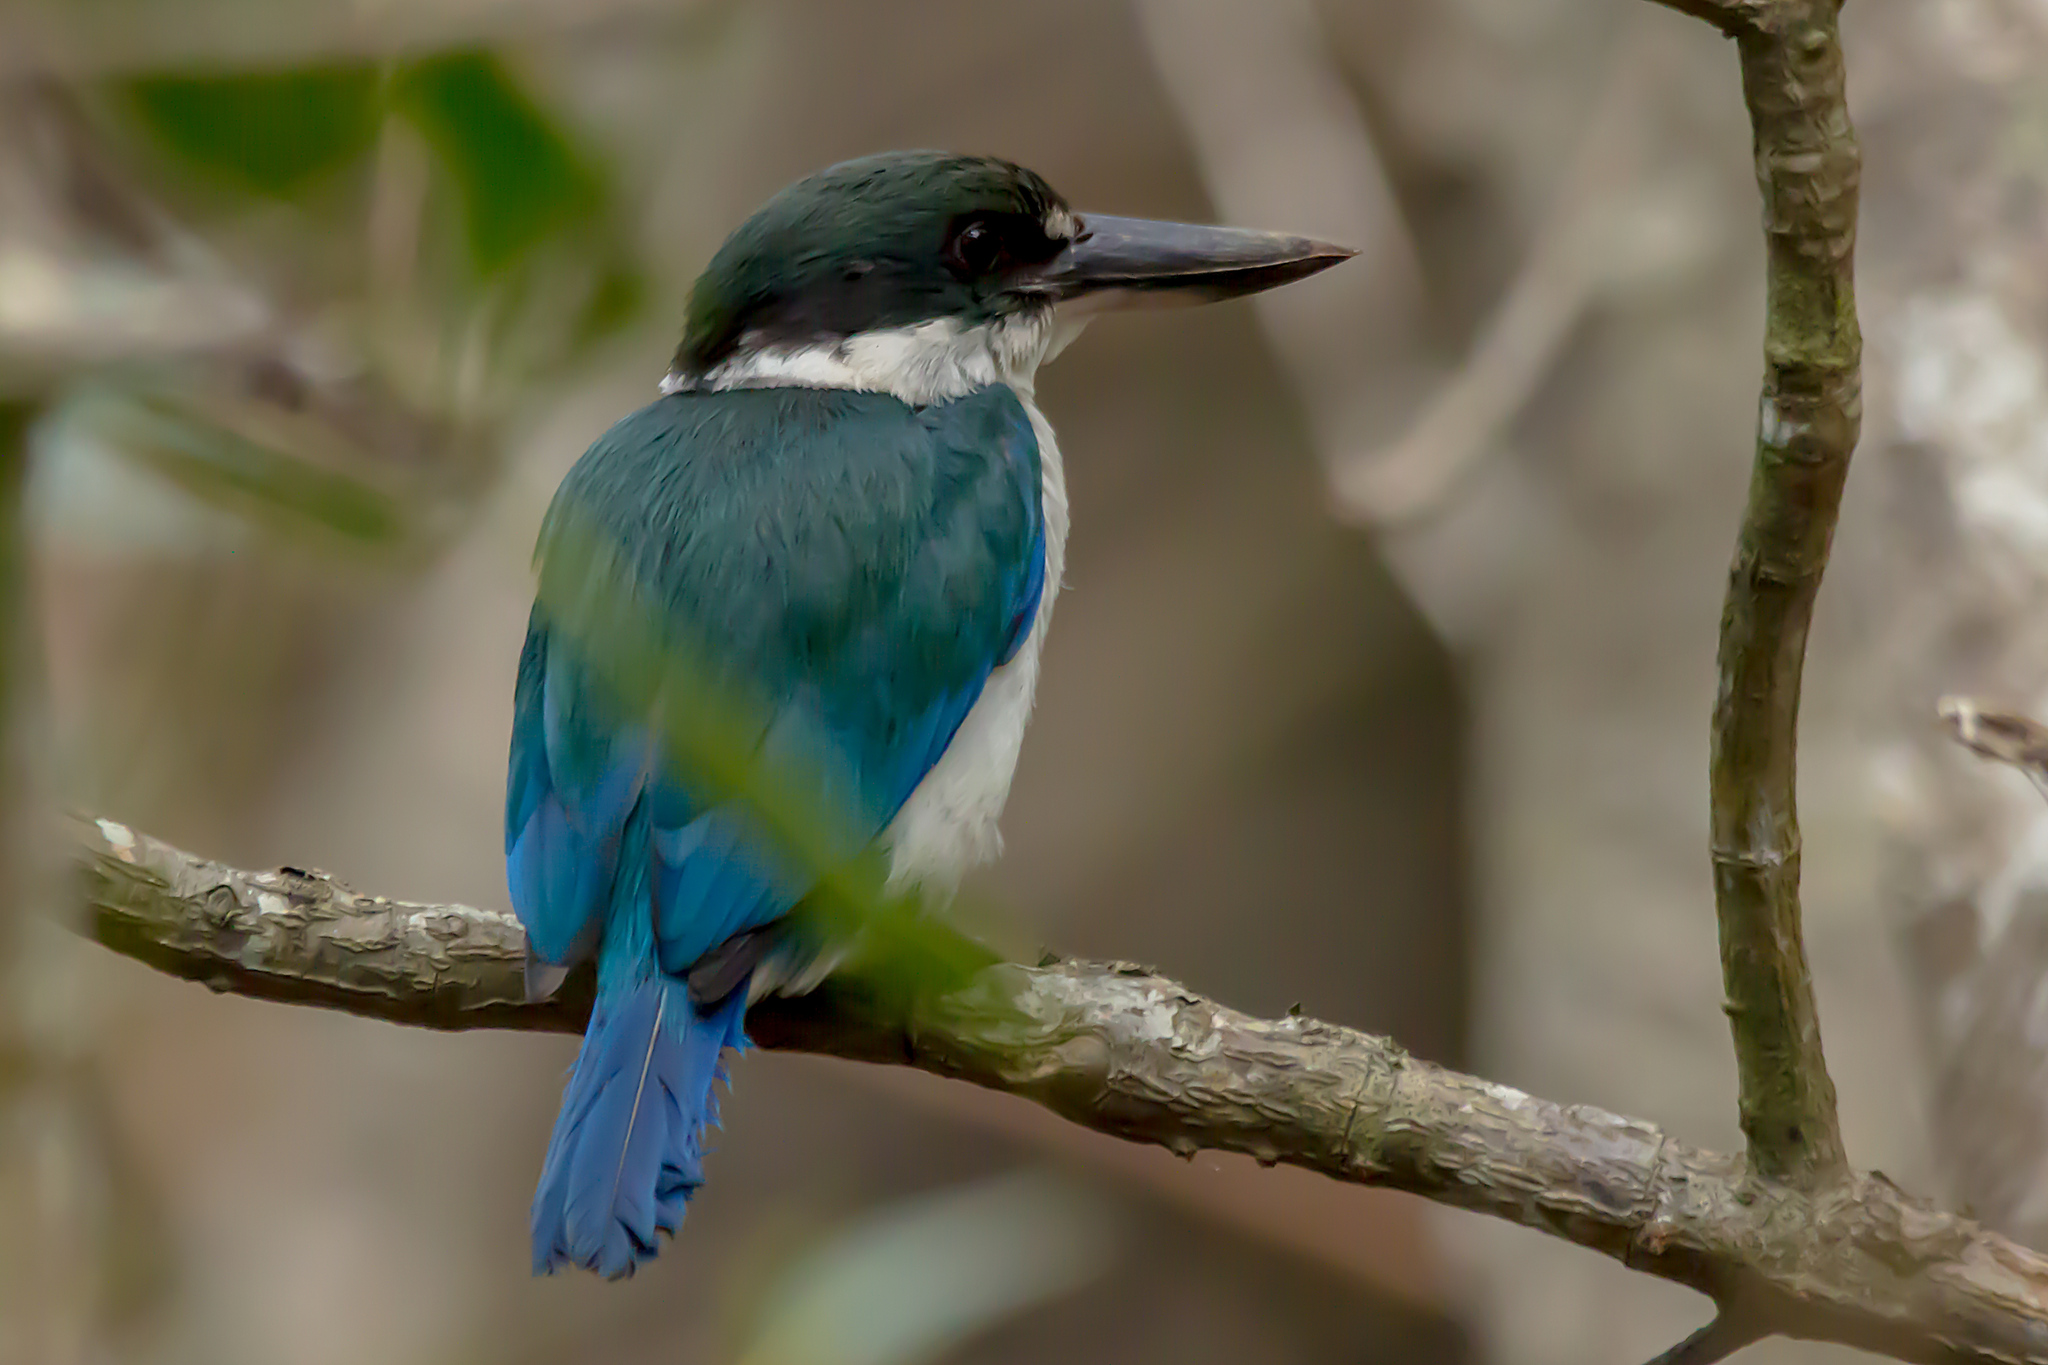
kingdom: Animalia
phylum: Chordata
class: Aves
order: Coraciiformes
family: Alcedinidae
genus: Todiramphus
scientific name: Todiramphus sordidus
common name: Torresian kingfisher
